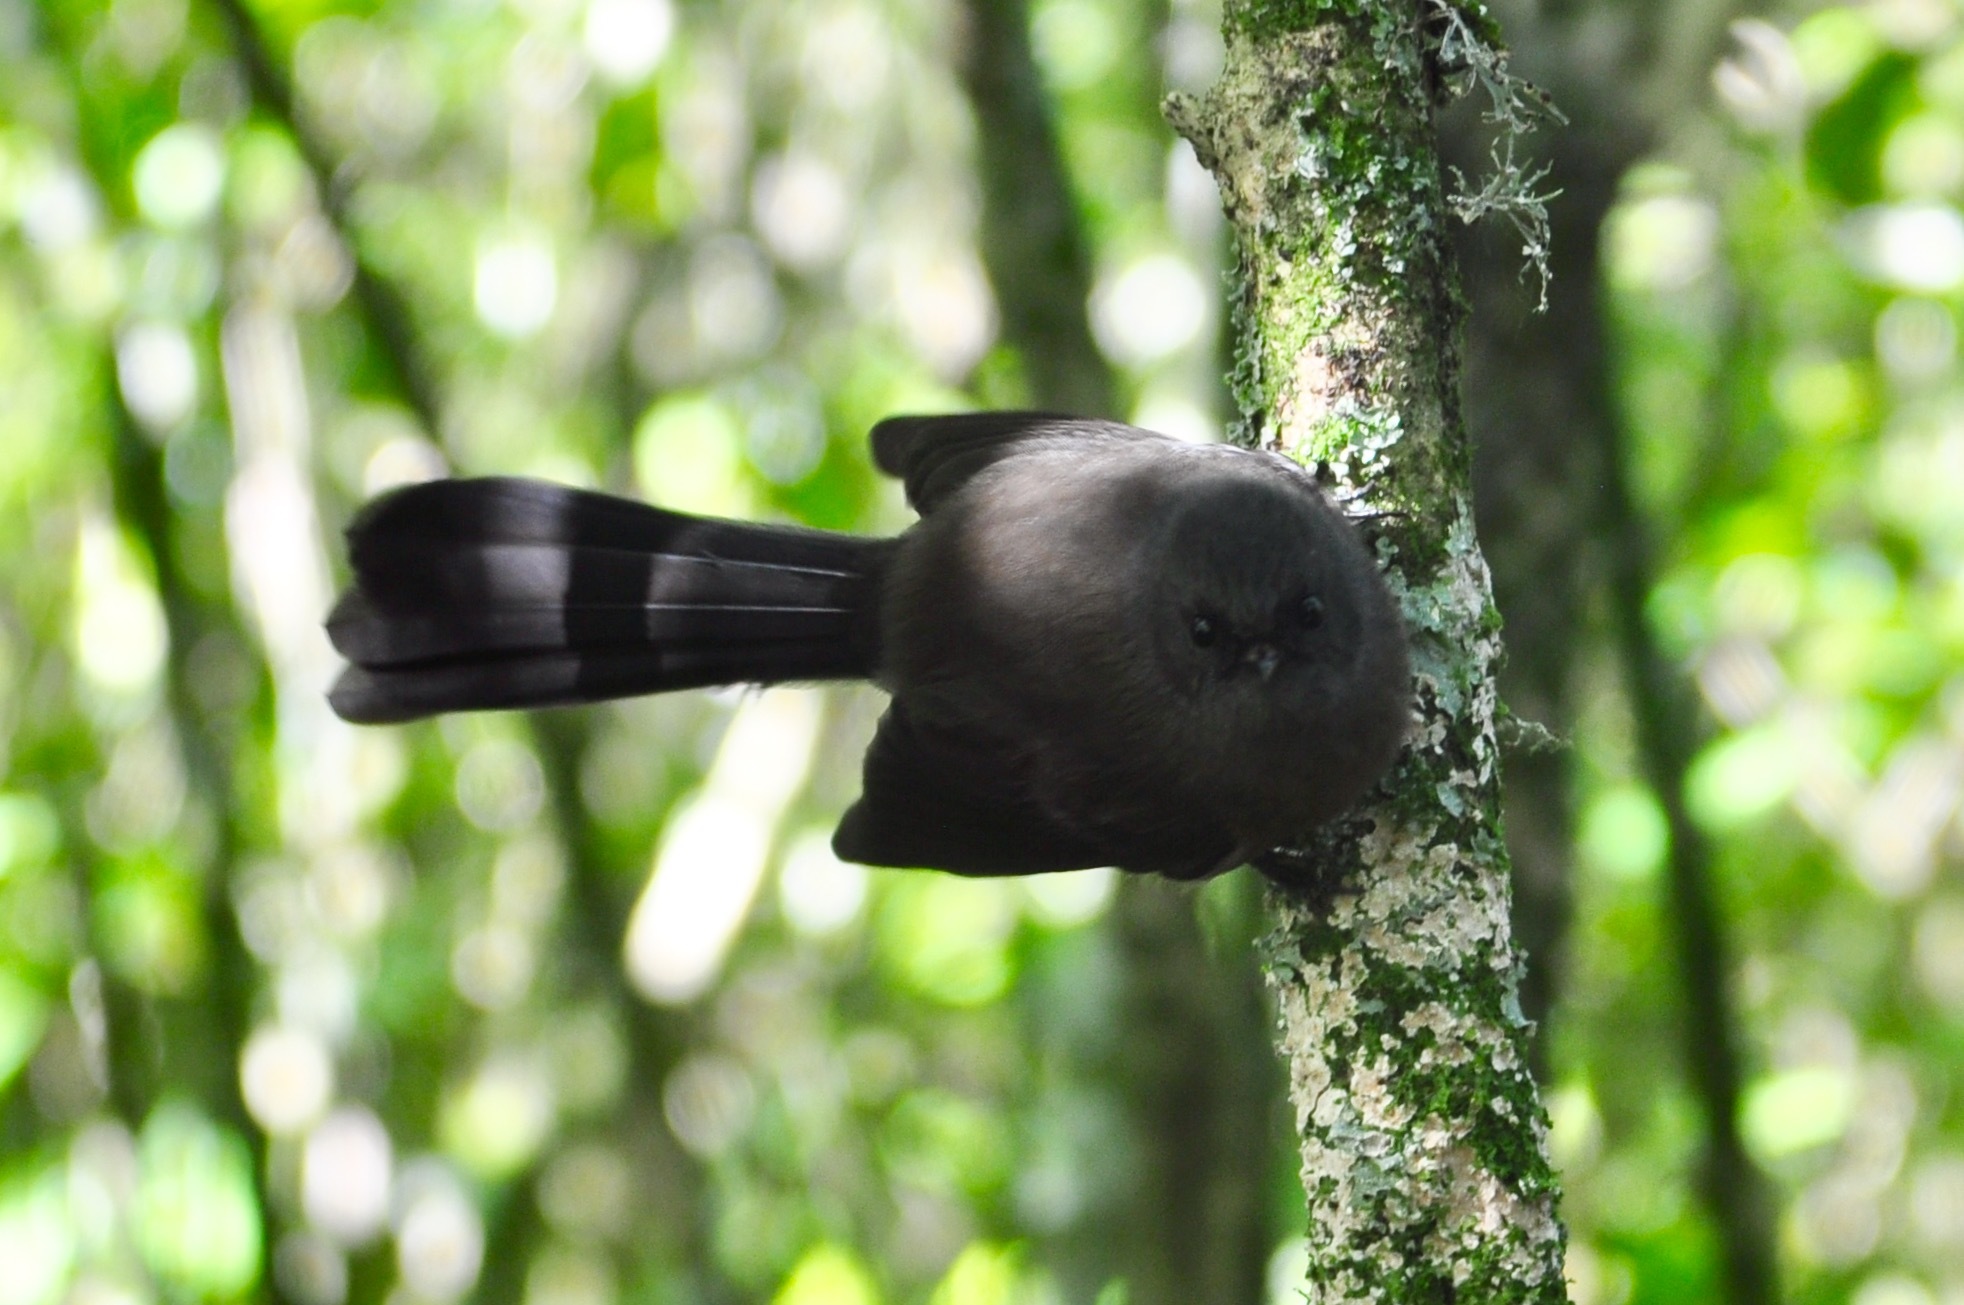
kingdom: Animalia
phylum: Chordata
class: Aves
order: Passeriformes
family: Rhipiduridae
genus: Rhipidura
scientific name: Rhipidura fuliginosa
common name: New zealand fantail
